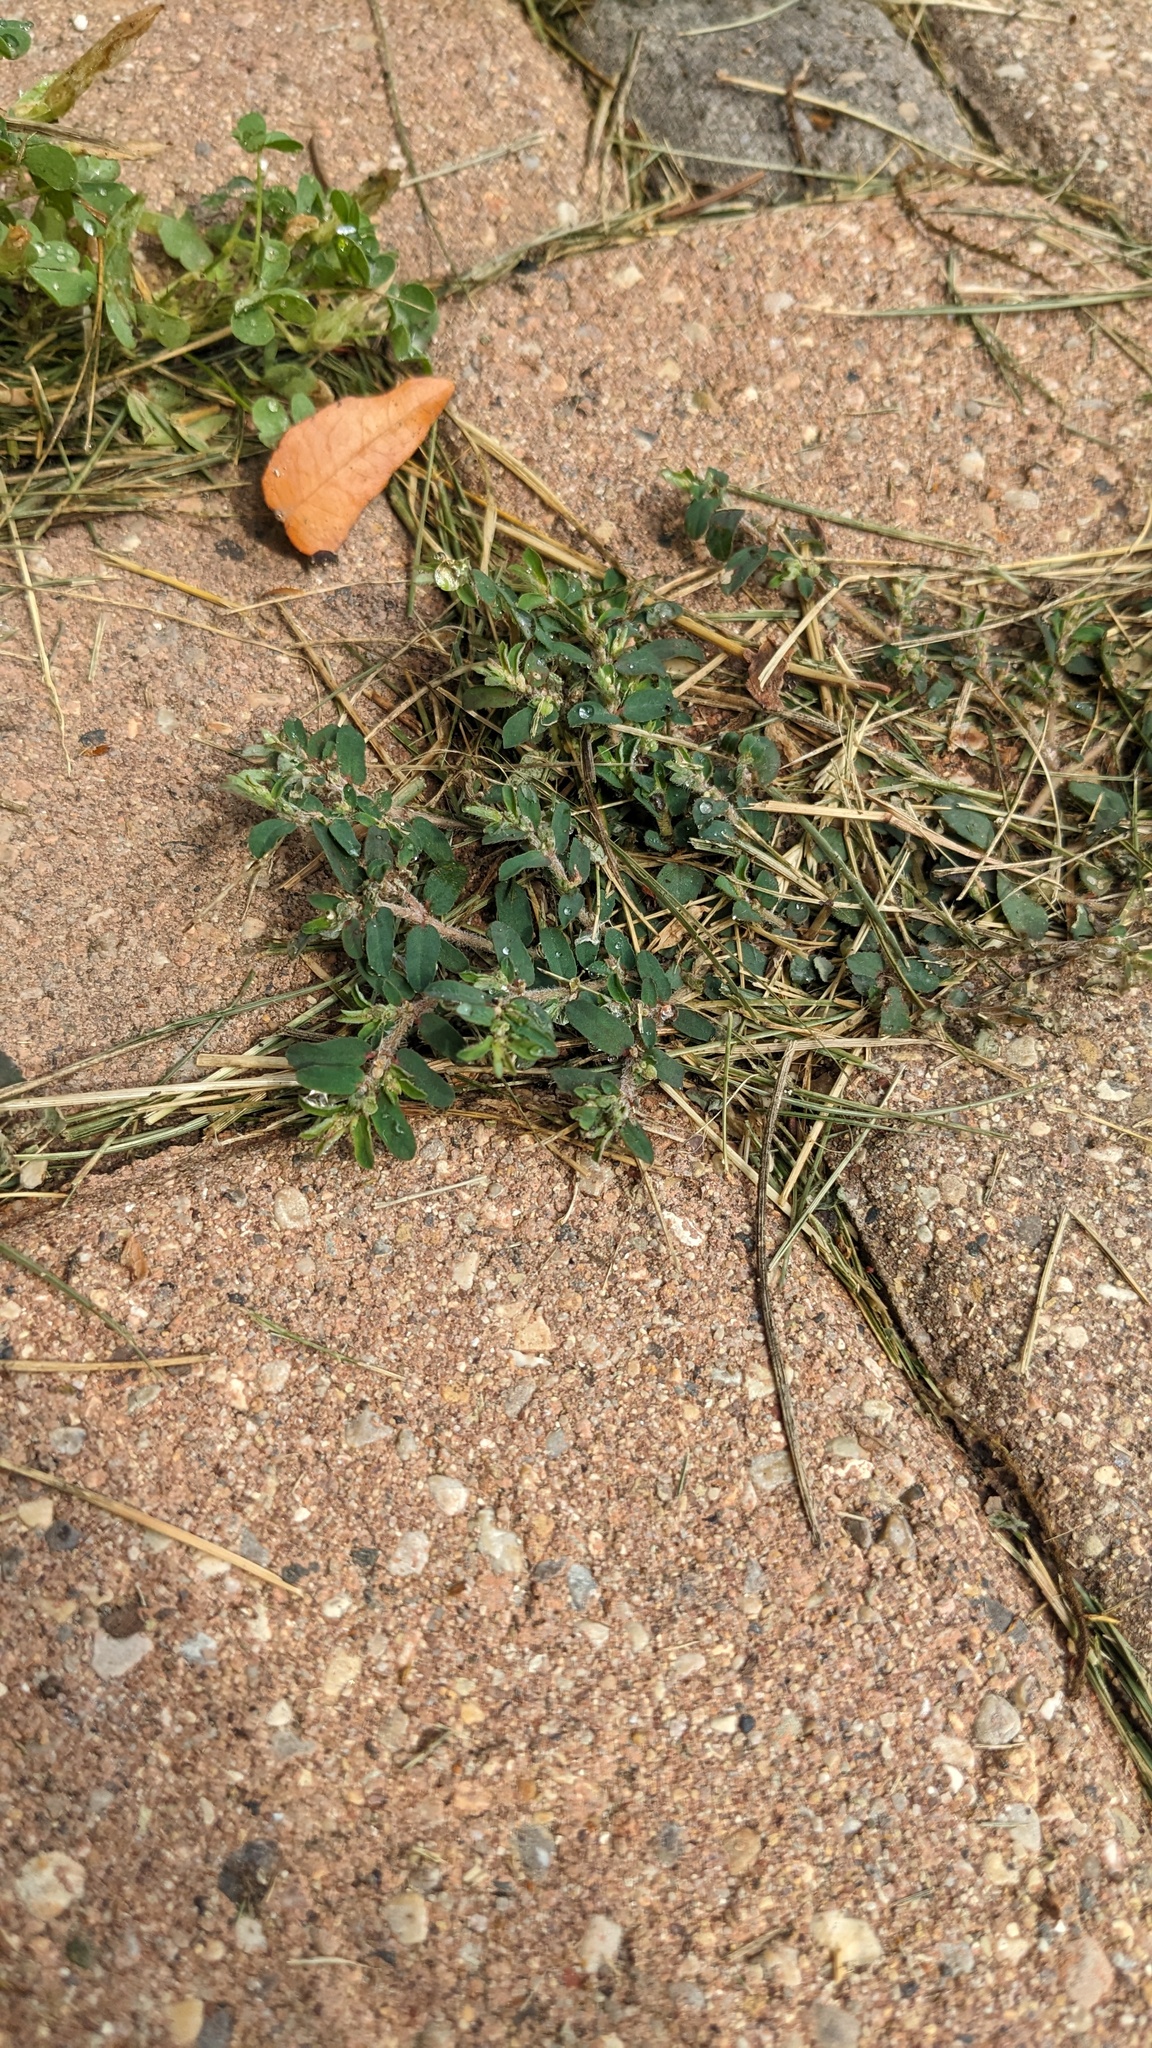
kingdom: Plantae
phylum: Tracheophyta
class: Magnoliopsida
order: Malpighiales
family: Euphorbiaceae
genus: Euphorbia
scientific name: Euphorbia maculata
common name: Spotted spurge
